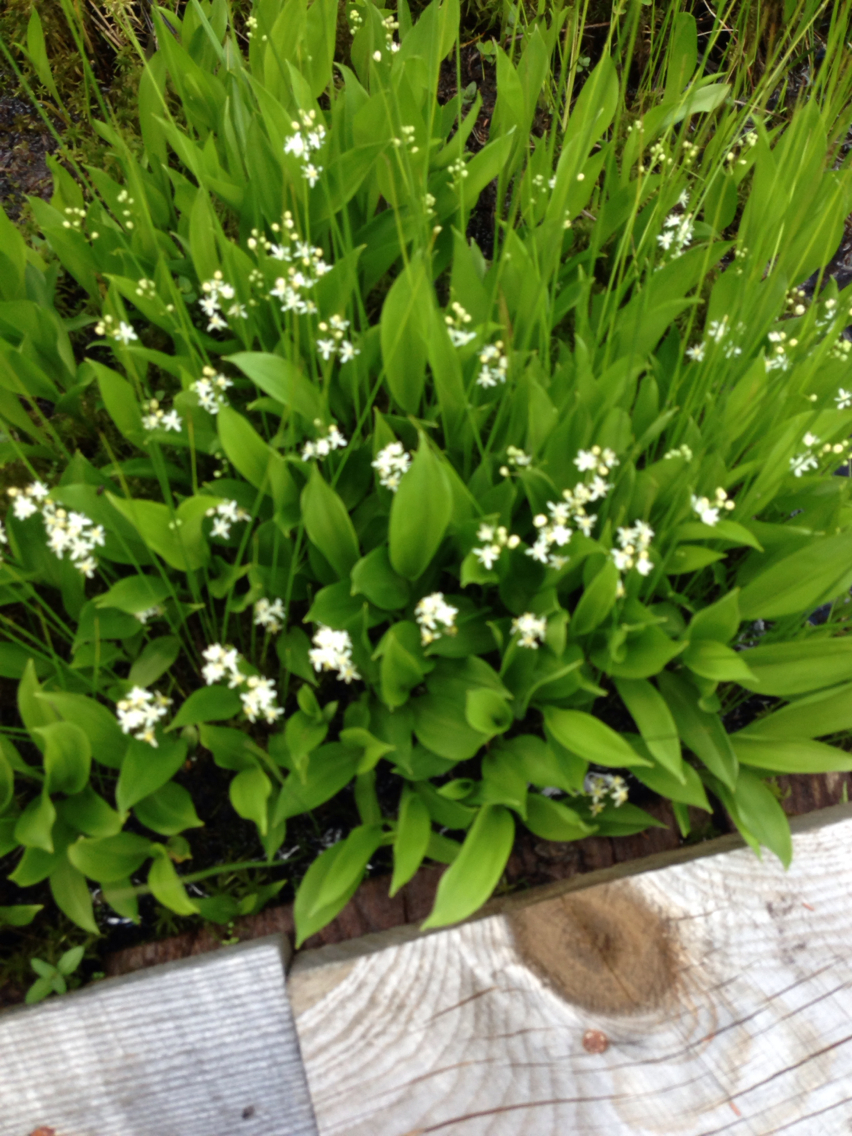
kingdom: Plantae
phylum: Tracheophyta
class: Liliopsida
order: Asparagales
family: Asparagaceae
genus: Maianthemum
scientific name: Maianthemum trifolium
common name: Swamp false solomon's seal
